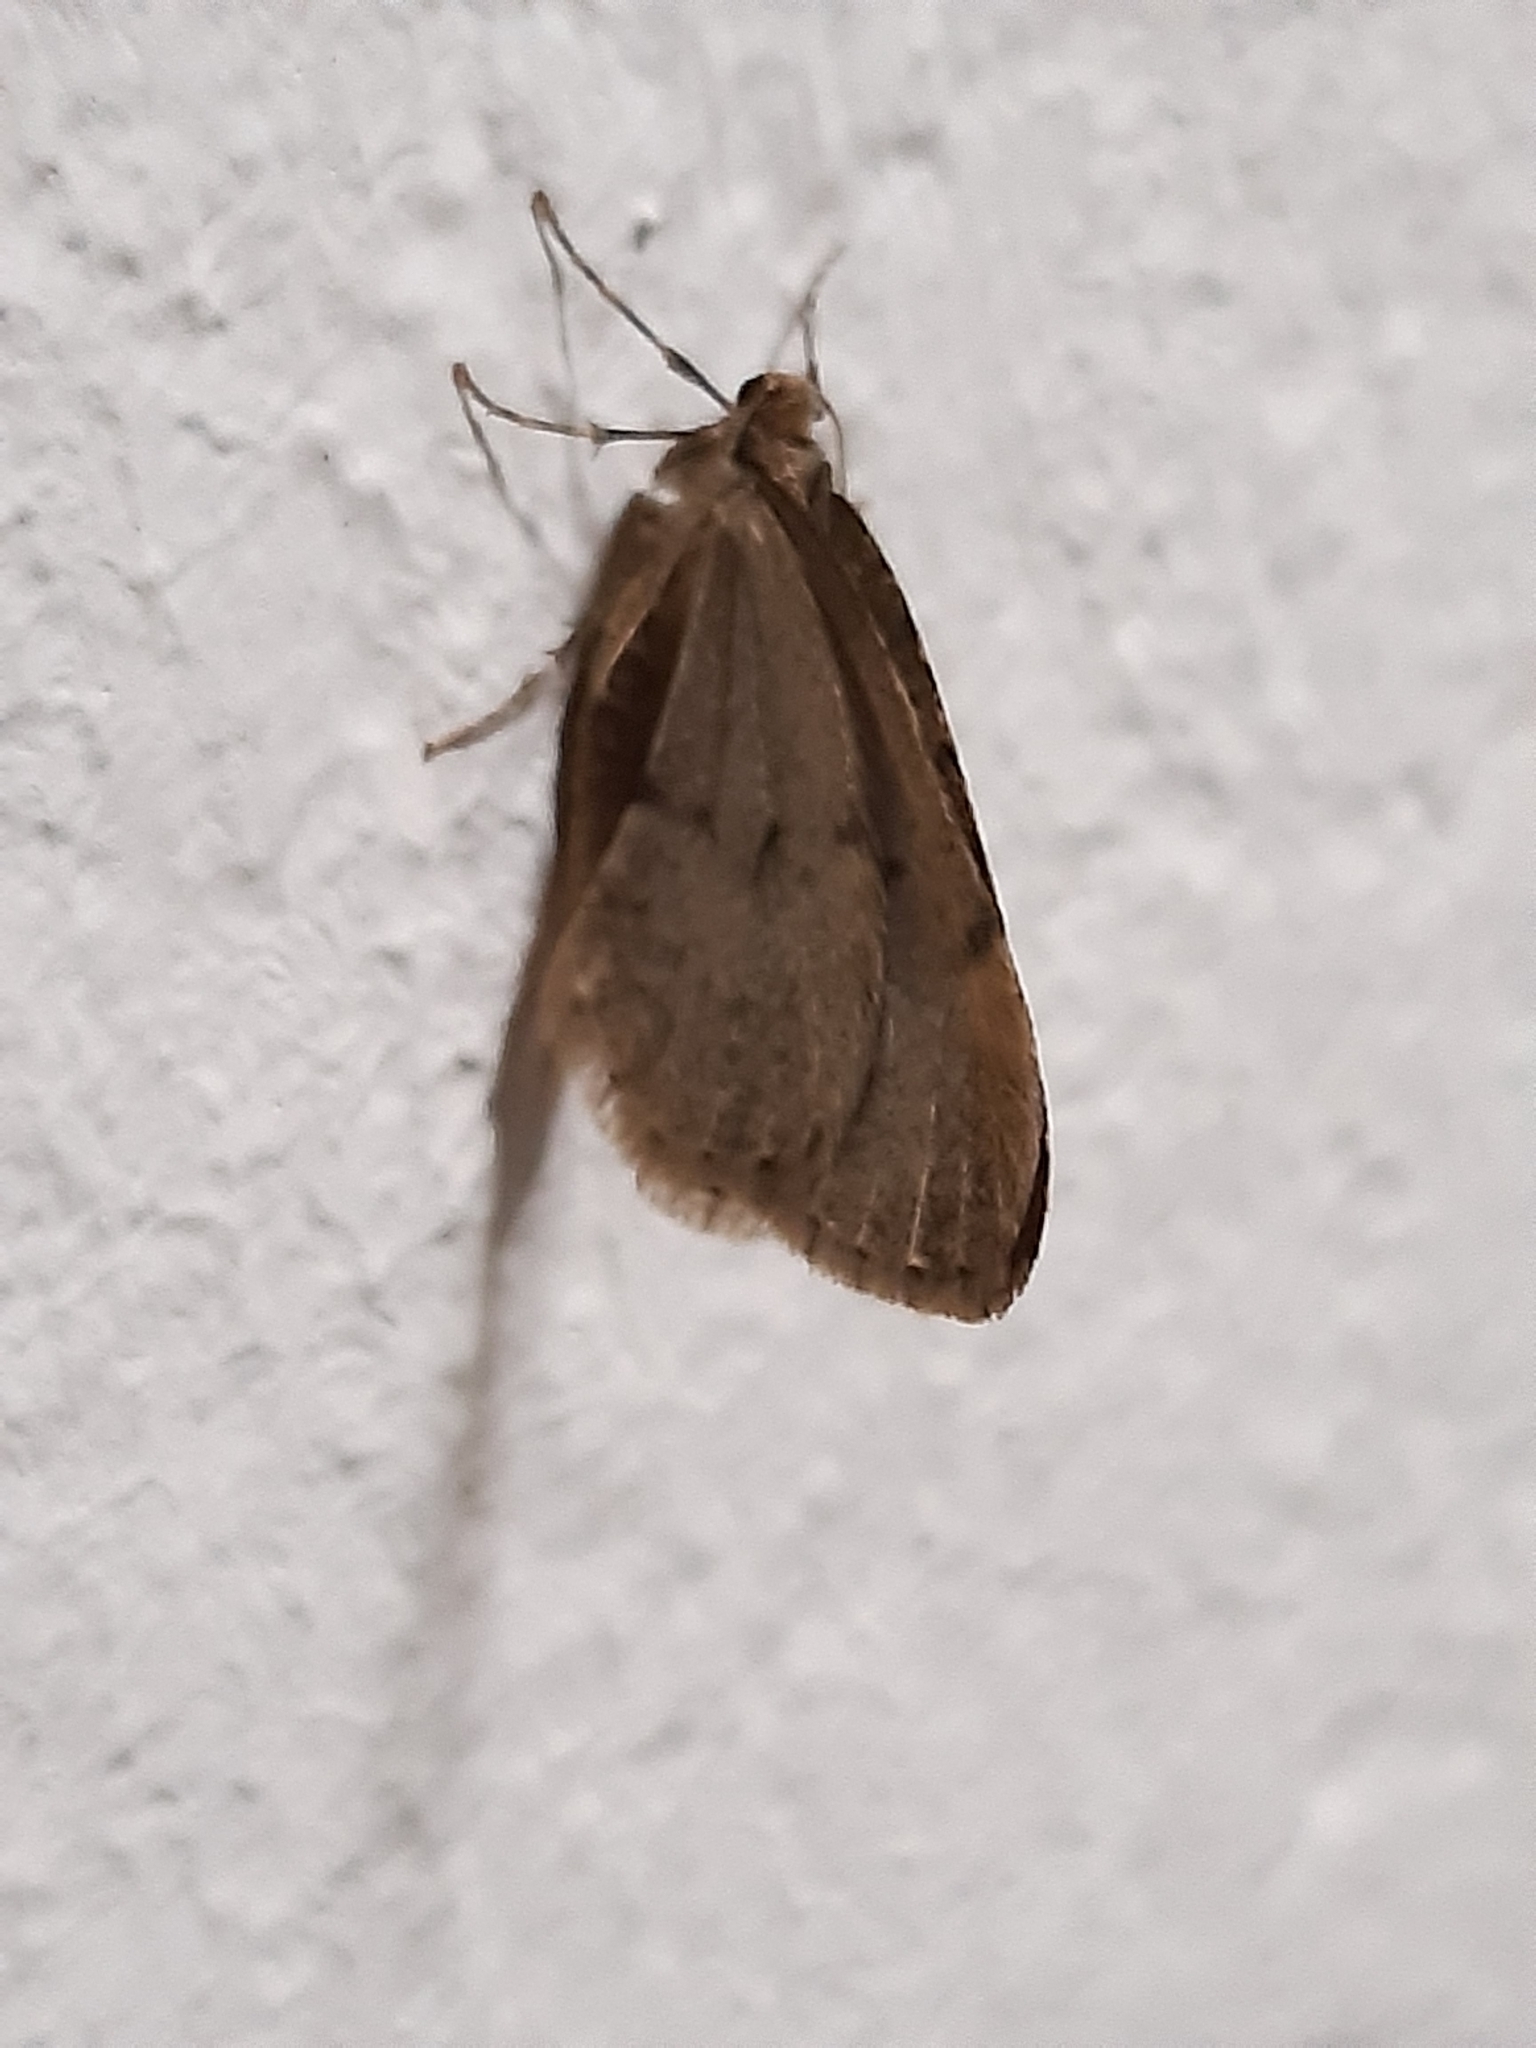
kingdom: Animalia
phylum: Arthropoda
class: Insecta
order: Lepidoptera
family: Geometridae
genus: Operophtera
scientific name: Operophtera brumata
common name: Winter moth
